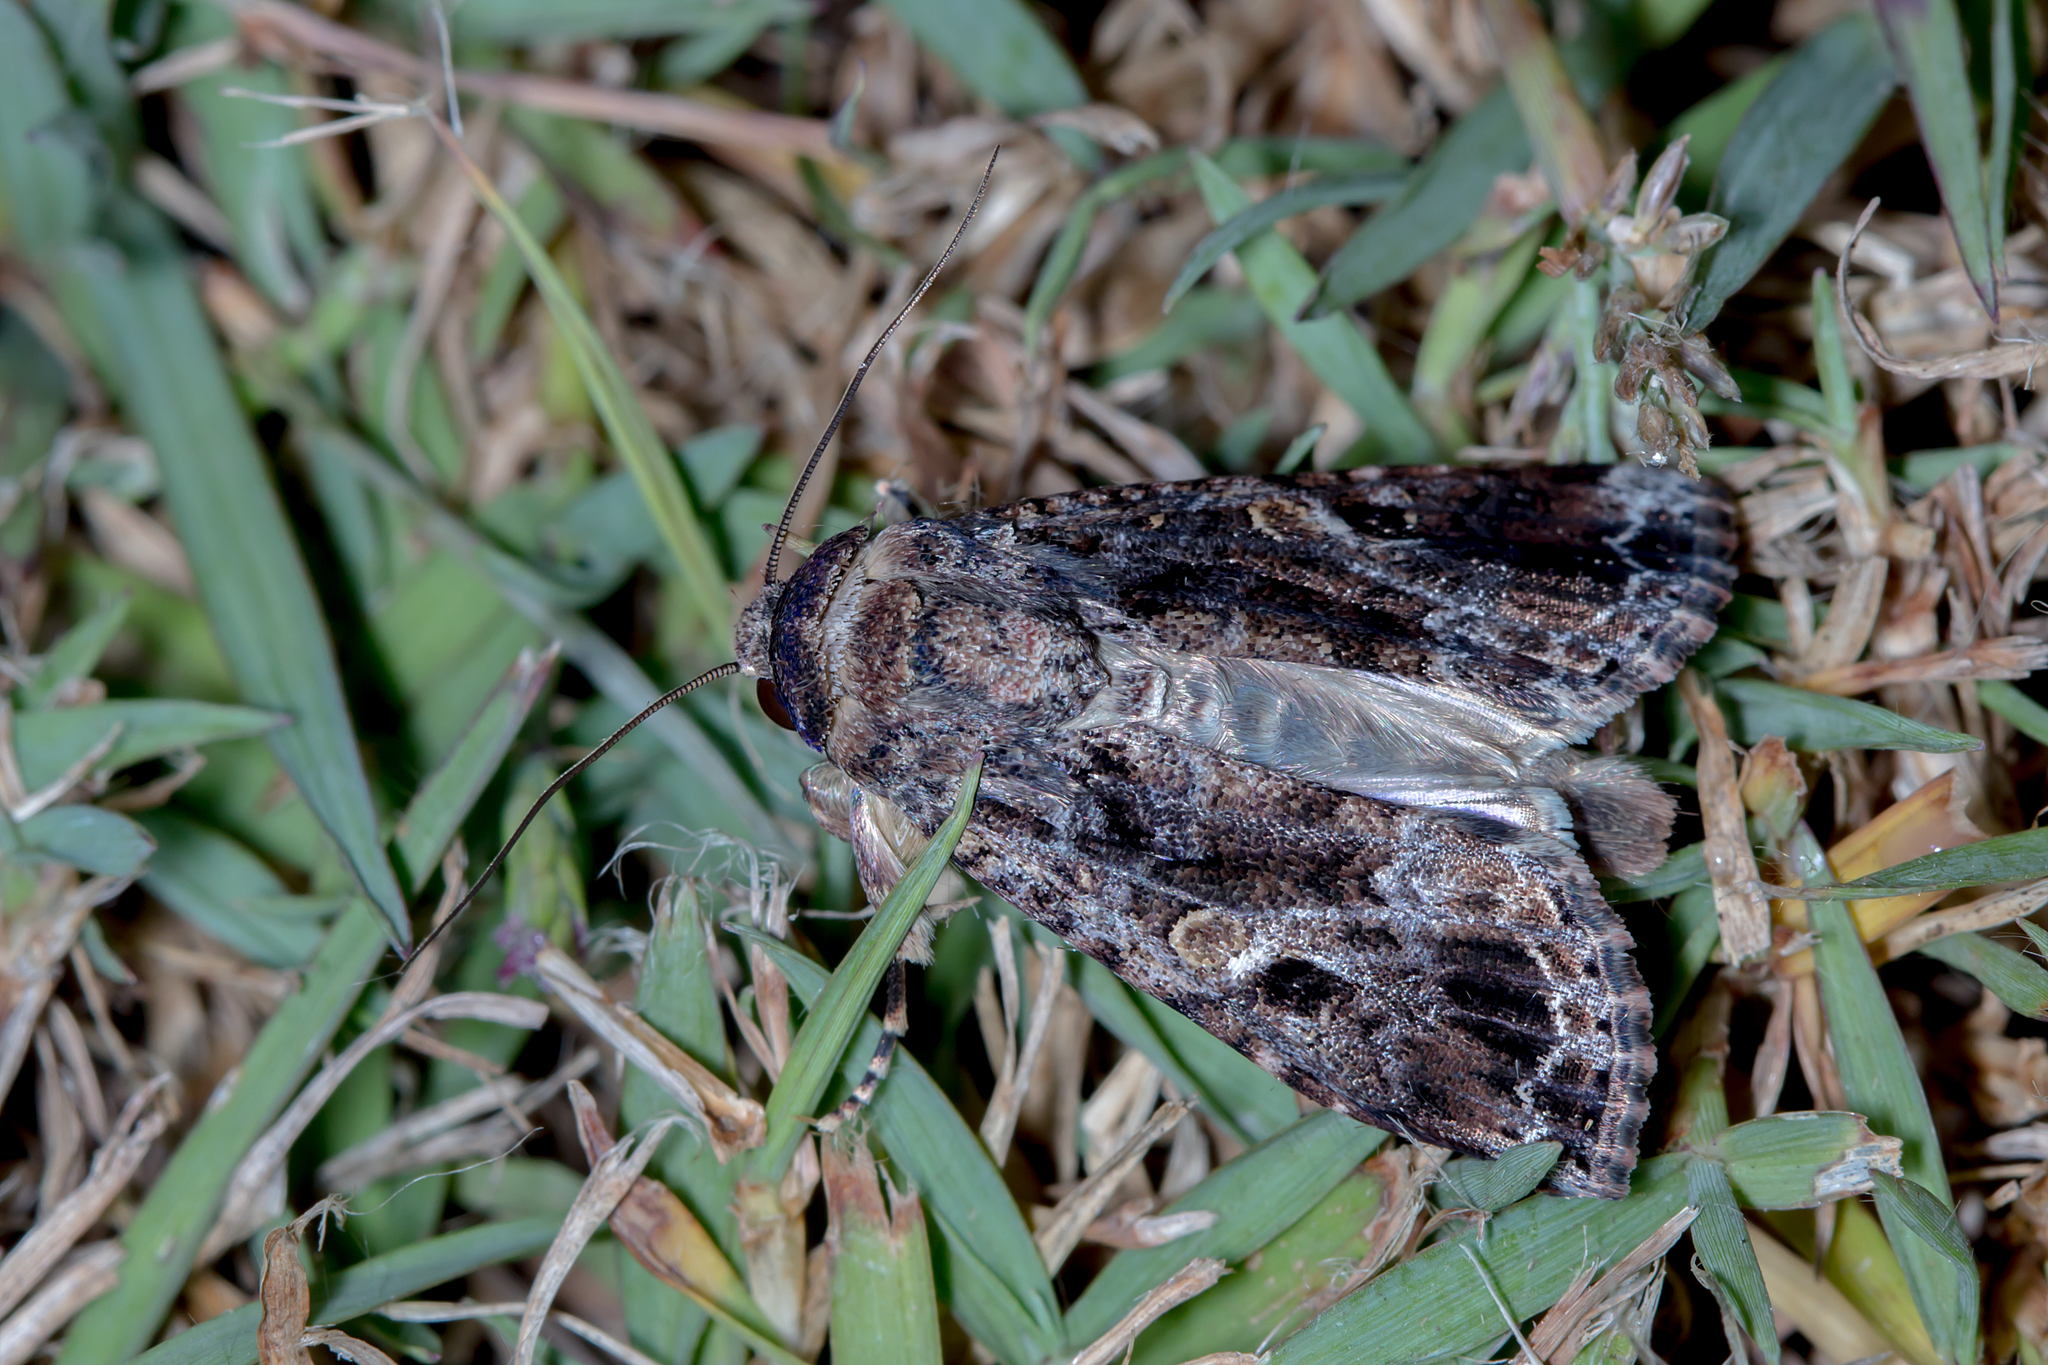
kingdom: Animalia
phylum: Arthropoda
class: Insecta
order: Lepidoptera
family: Noctuidae
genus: Spodoptera
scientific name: Spodoptera mauritia
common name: Lawn armyworm
